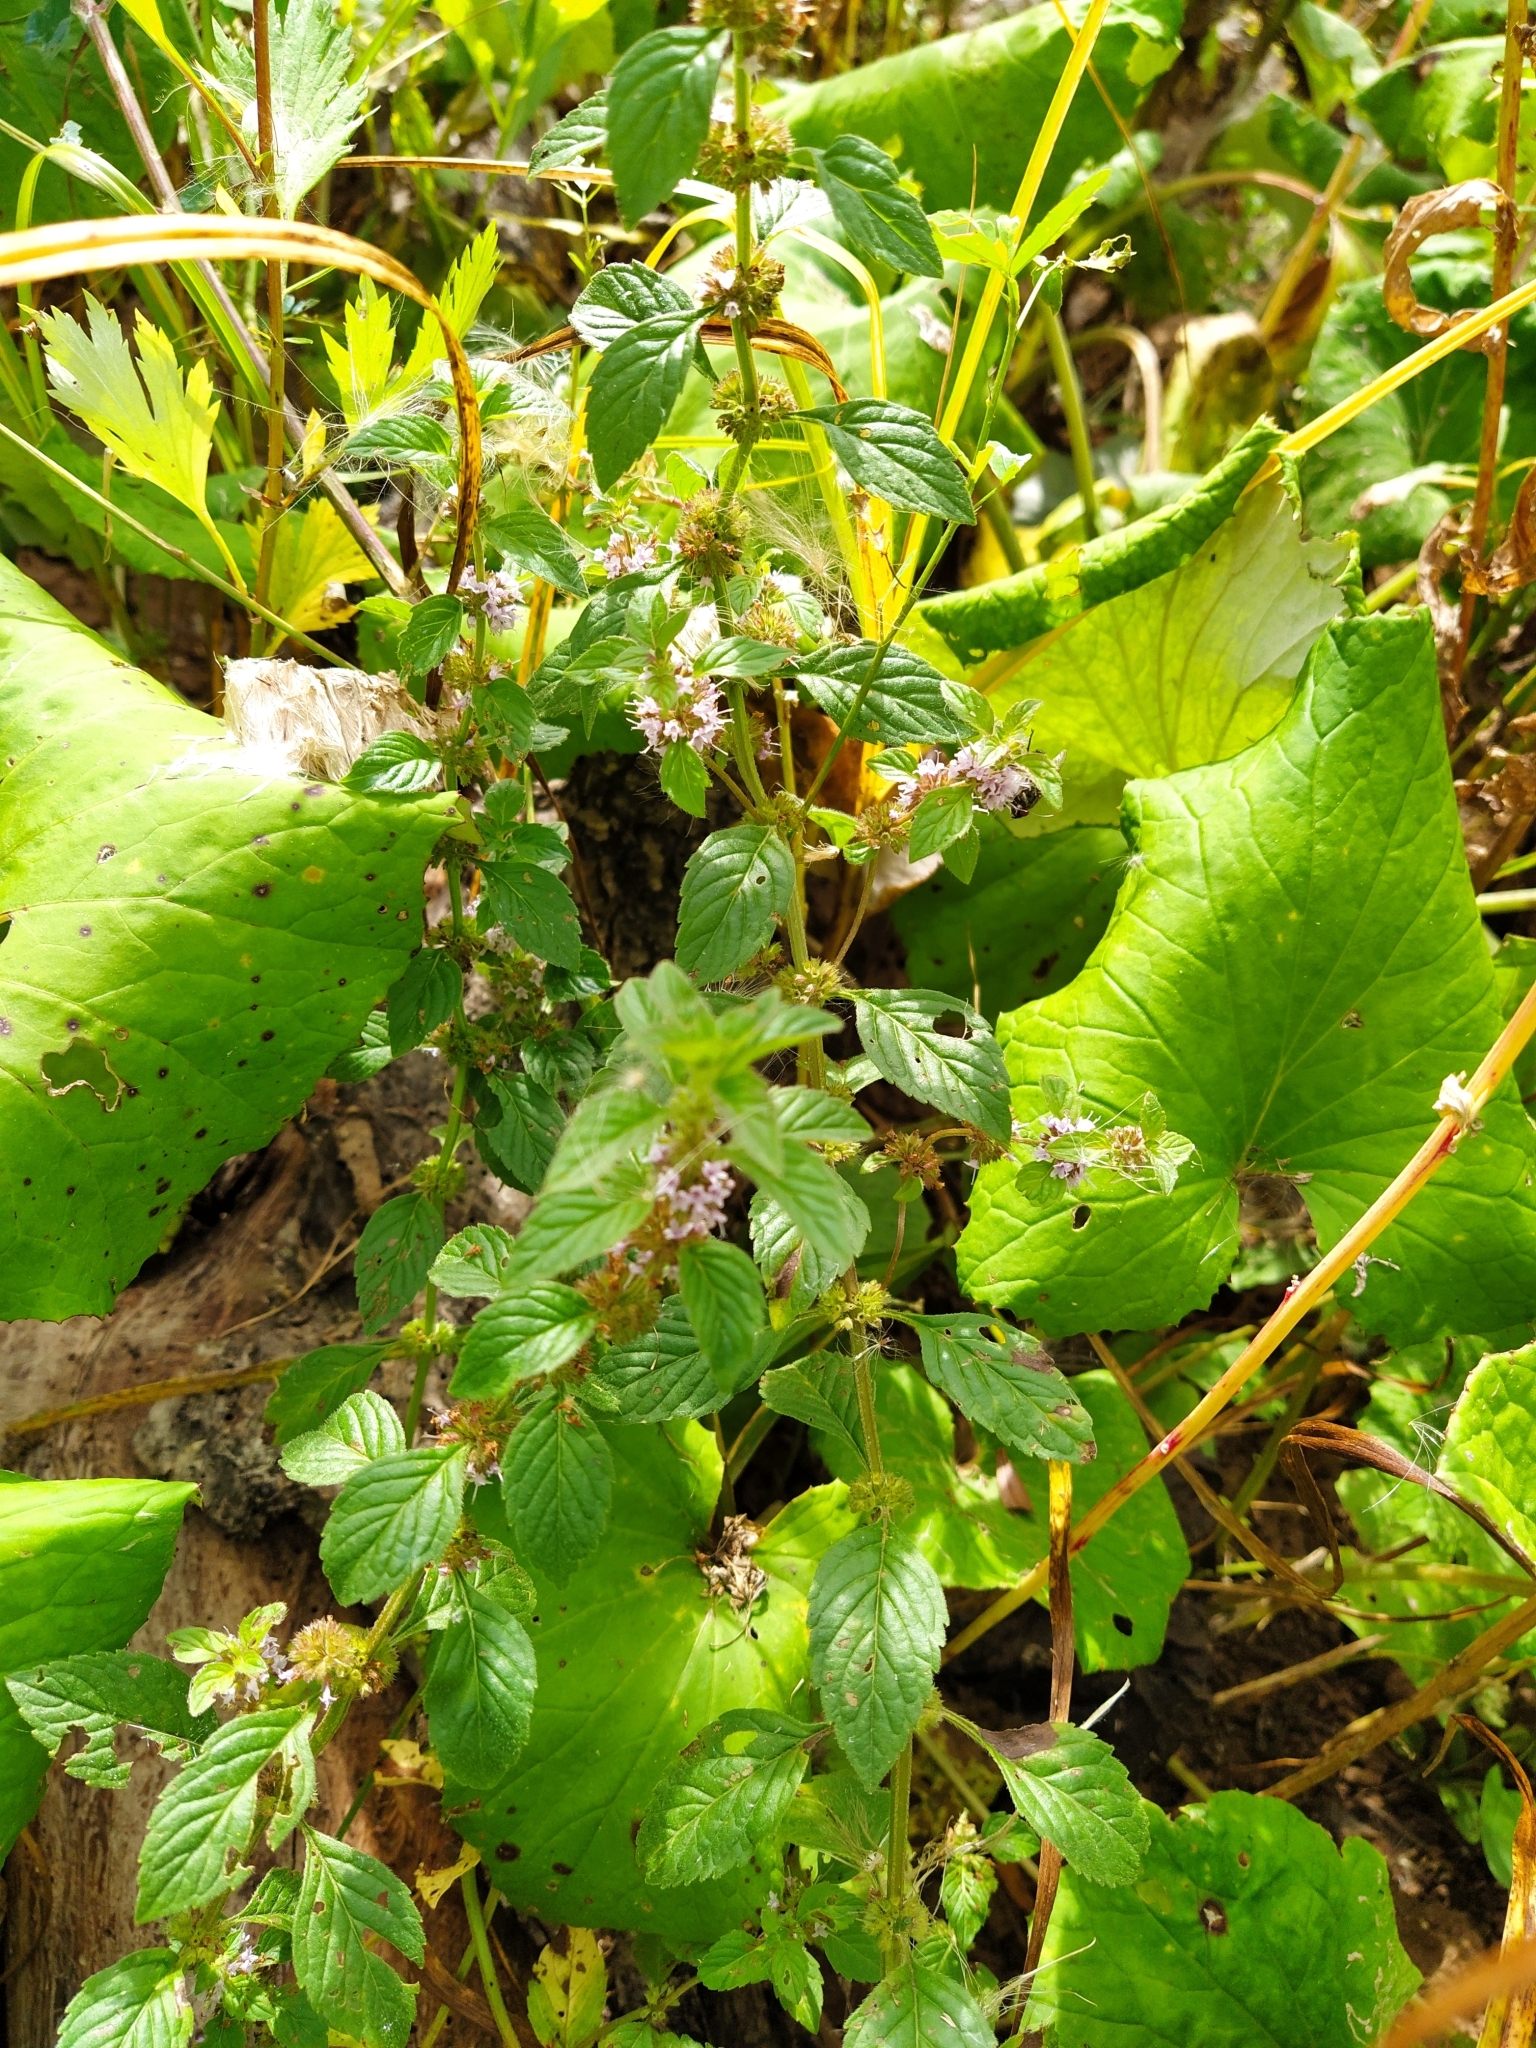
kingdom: Plantae
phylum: Tracheophyta
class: Magnoliopsida
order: Lamiales
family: Lamiaceae
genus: Mentha
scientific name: Mentha arvensis
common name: Corn mint
